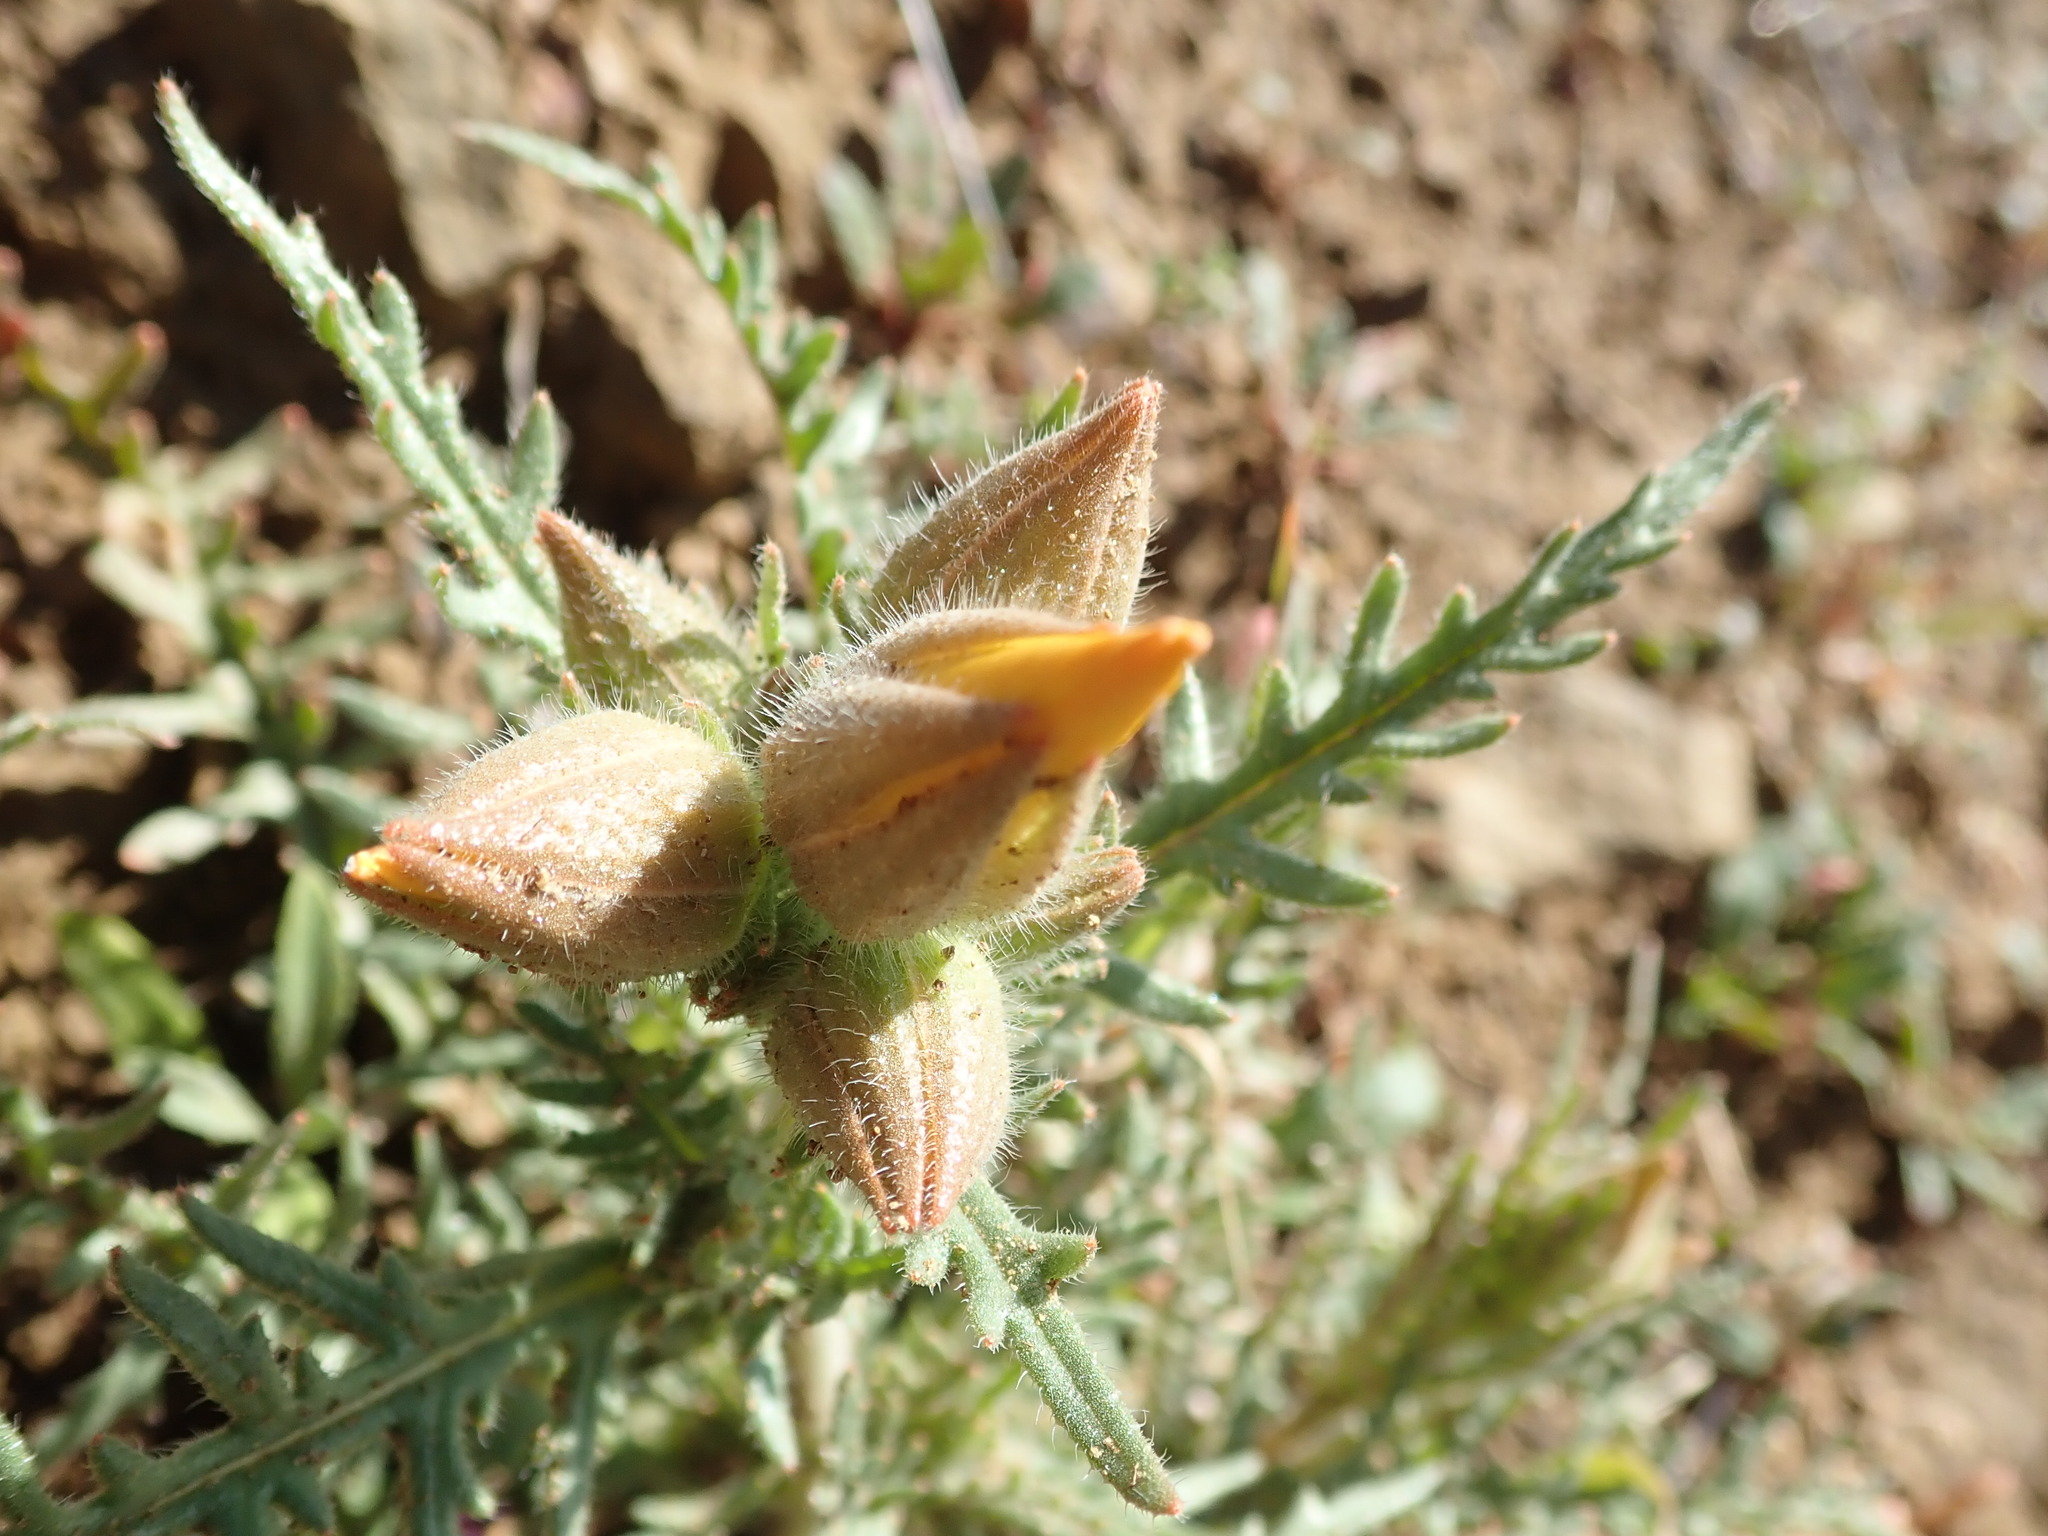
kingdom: Plantae
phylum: Tracheophyta
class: Magnoliopsida
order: Cornales
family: Loasaceae
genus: Mentzelia
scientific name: Mentzelia lindleyi
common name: Golden bartonia
